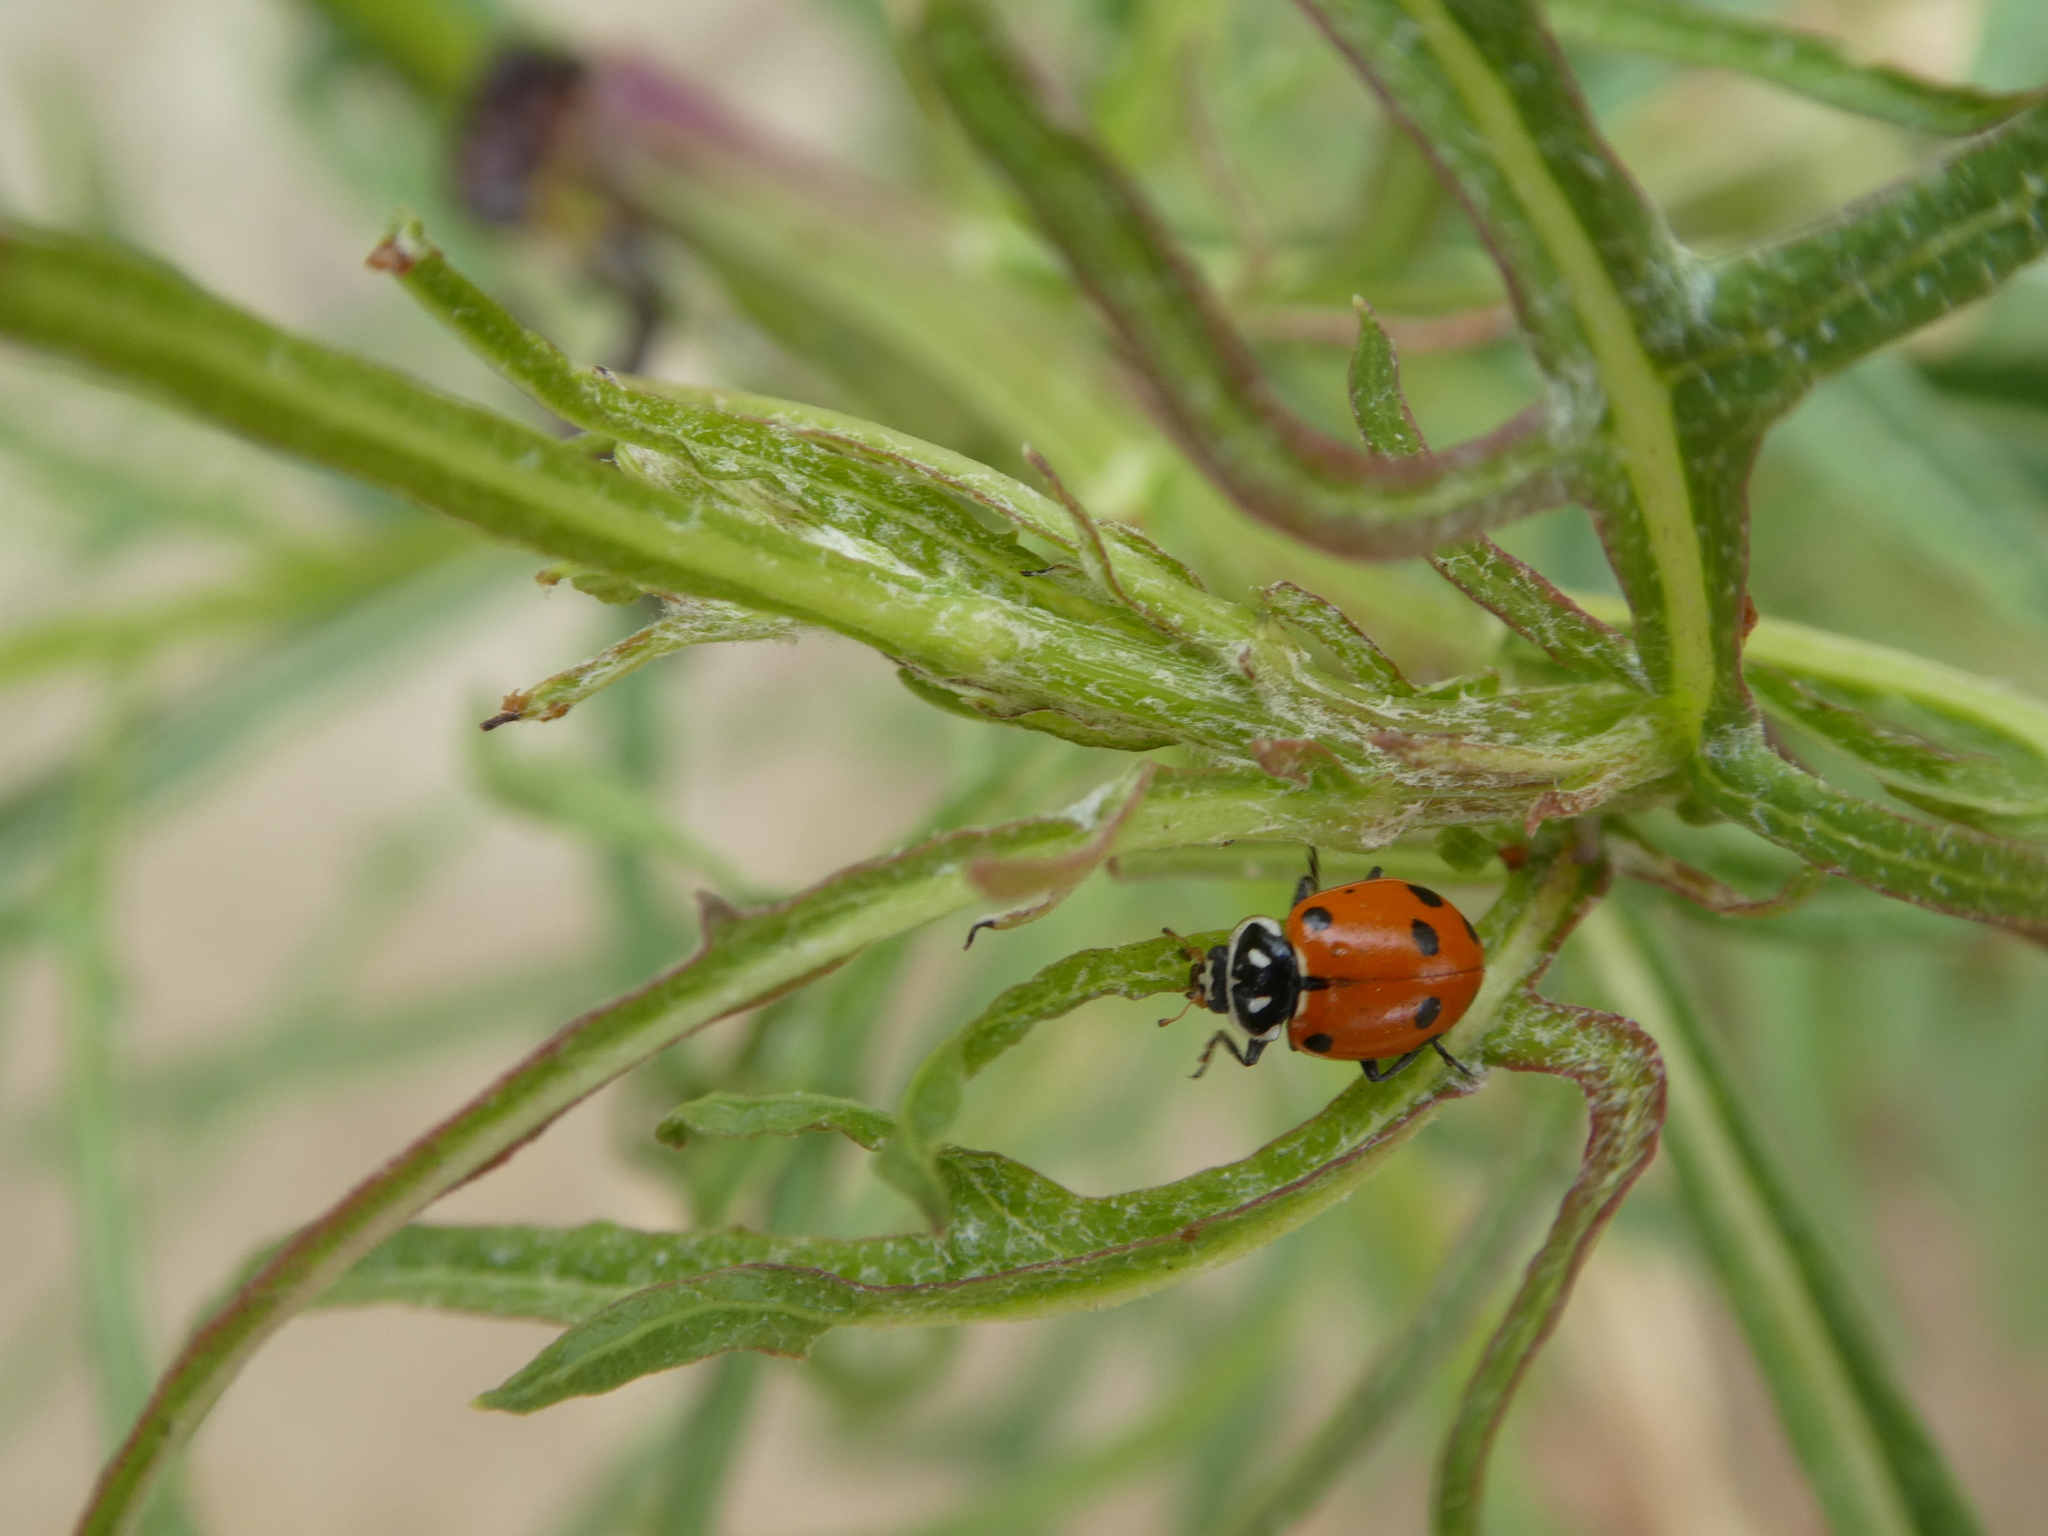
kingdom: Animalia
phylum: Arthropoda
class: Insecta
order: Coleoptera
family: Coccinellidae
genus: Hippodamia
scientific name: Hippodamia convergens
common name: Convergent lady beetle
